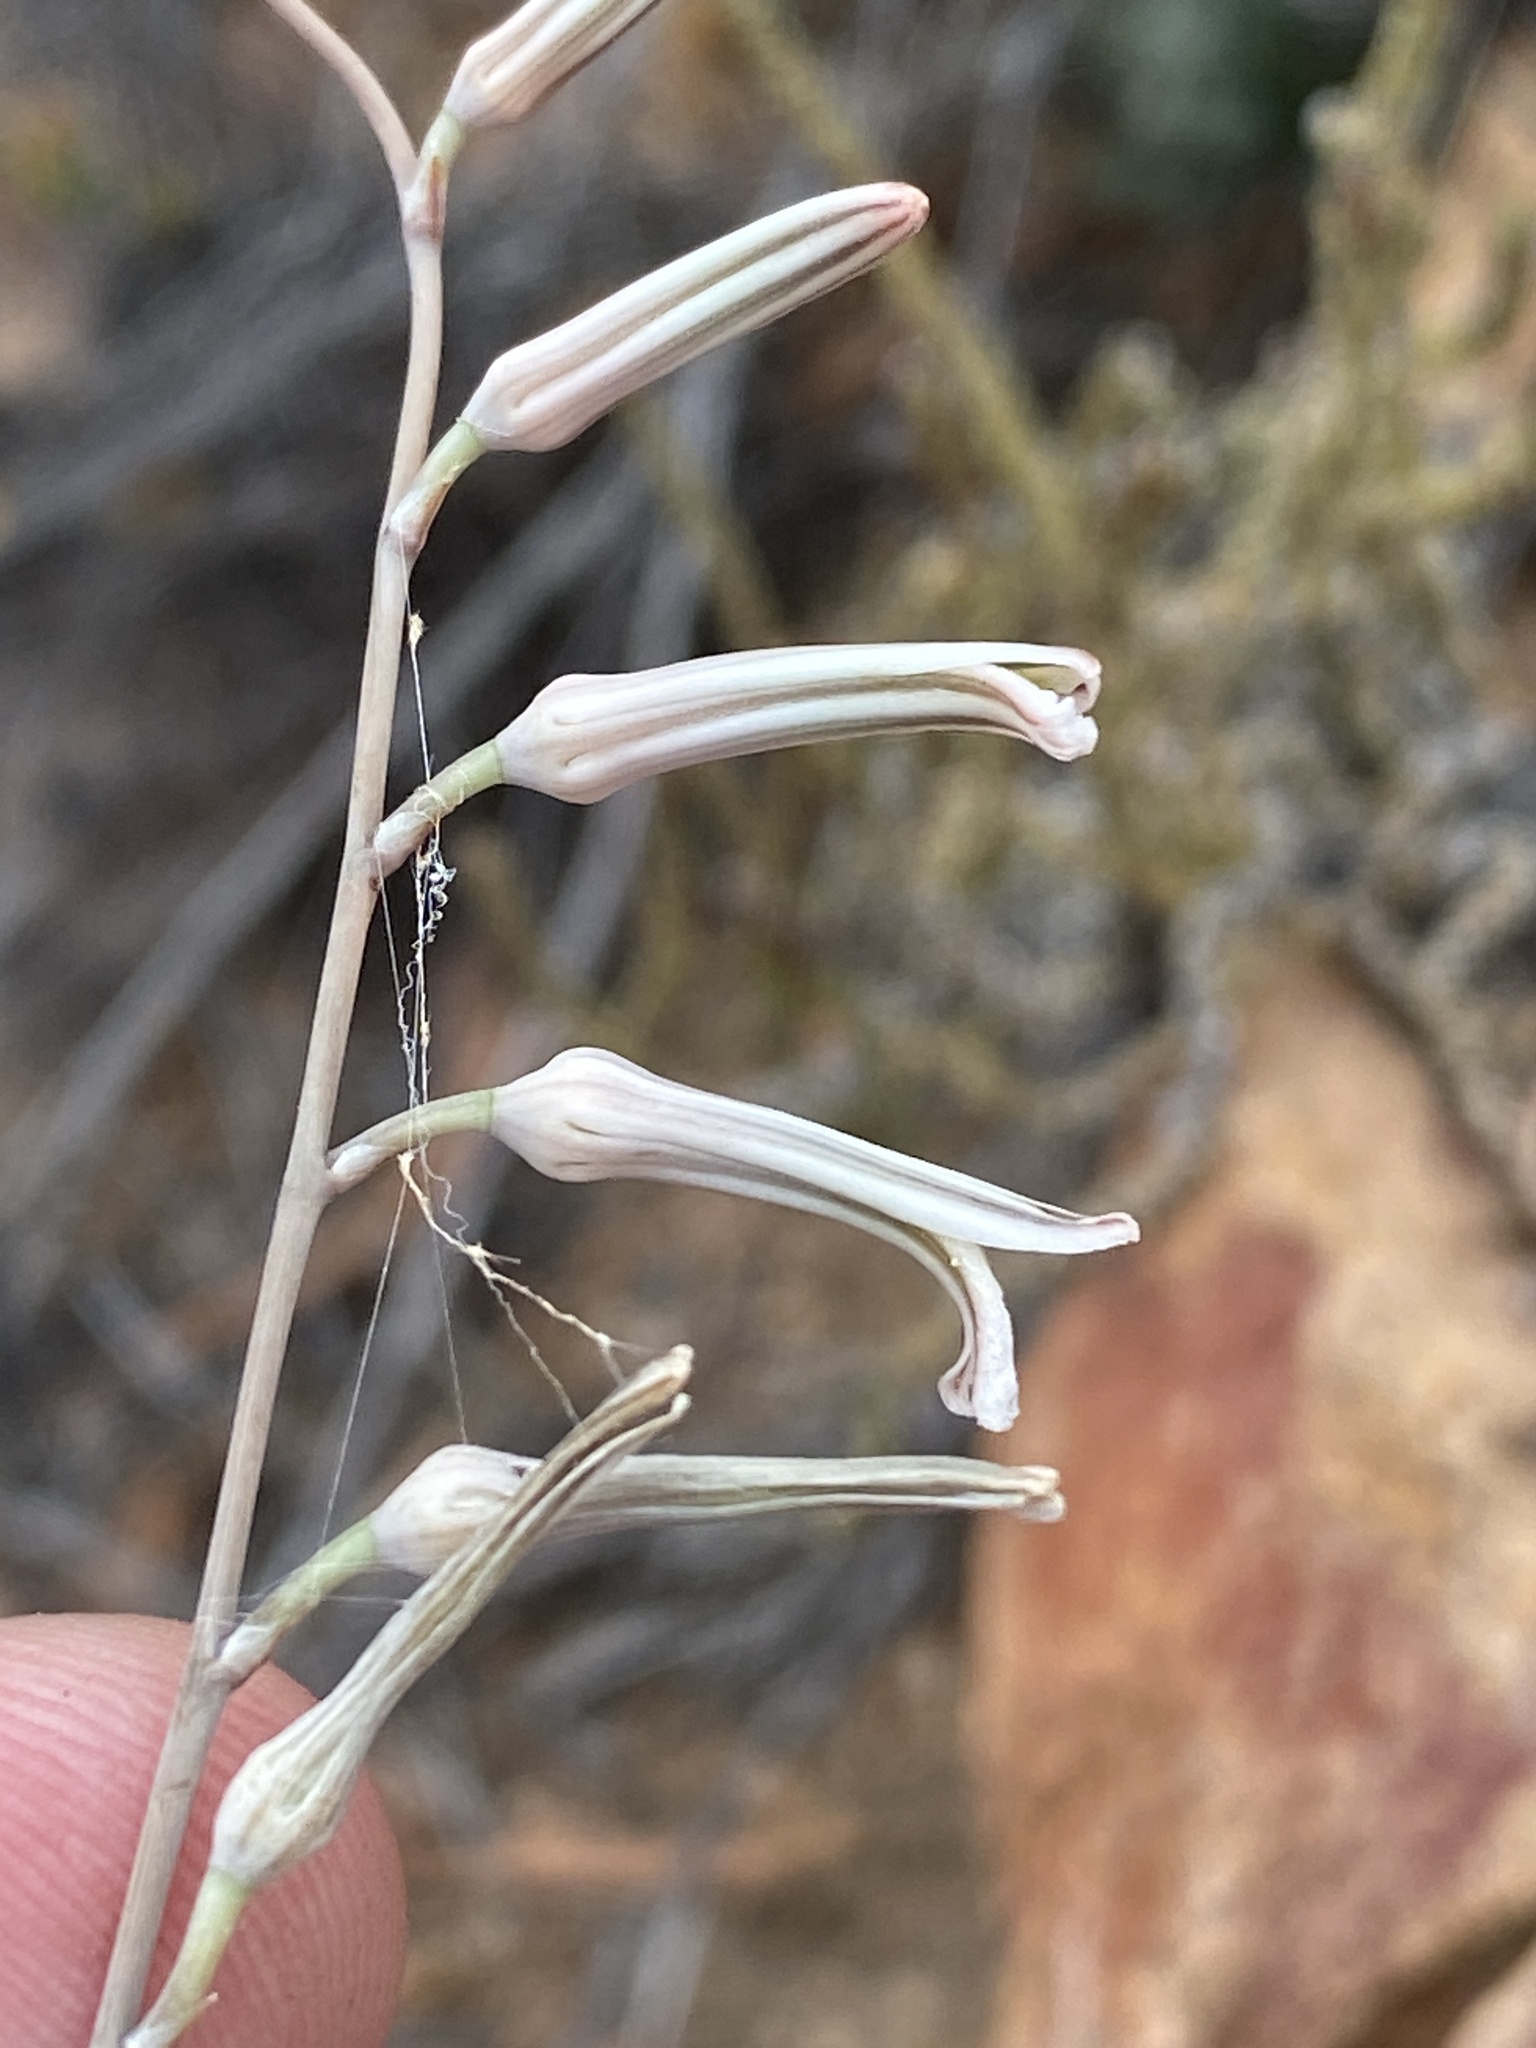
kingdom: Plantae
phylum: Tracheophyta
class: Liliopsida
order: Asparagales
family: Asphodelaceae
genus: Haworthiopsis
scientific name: Haworthiopsis scabra
